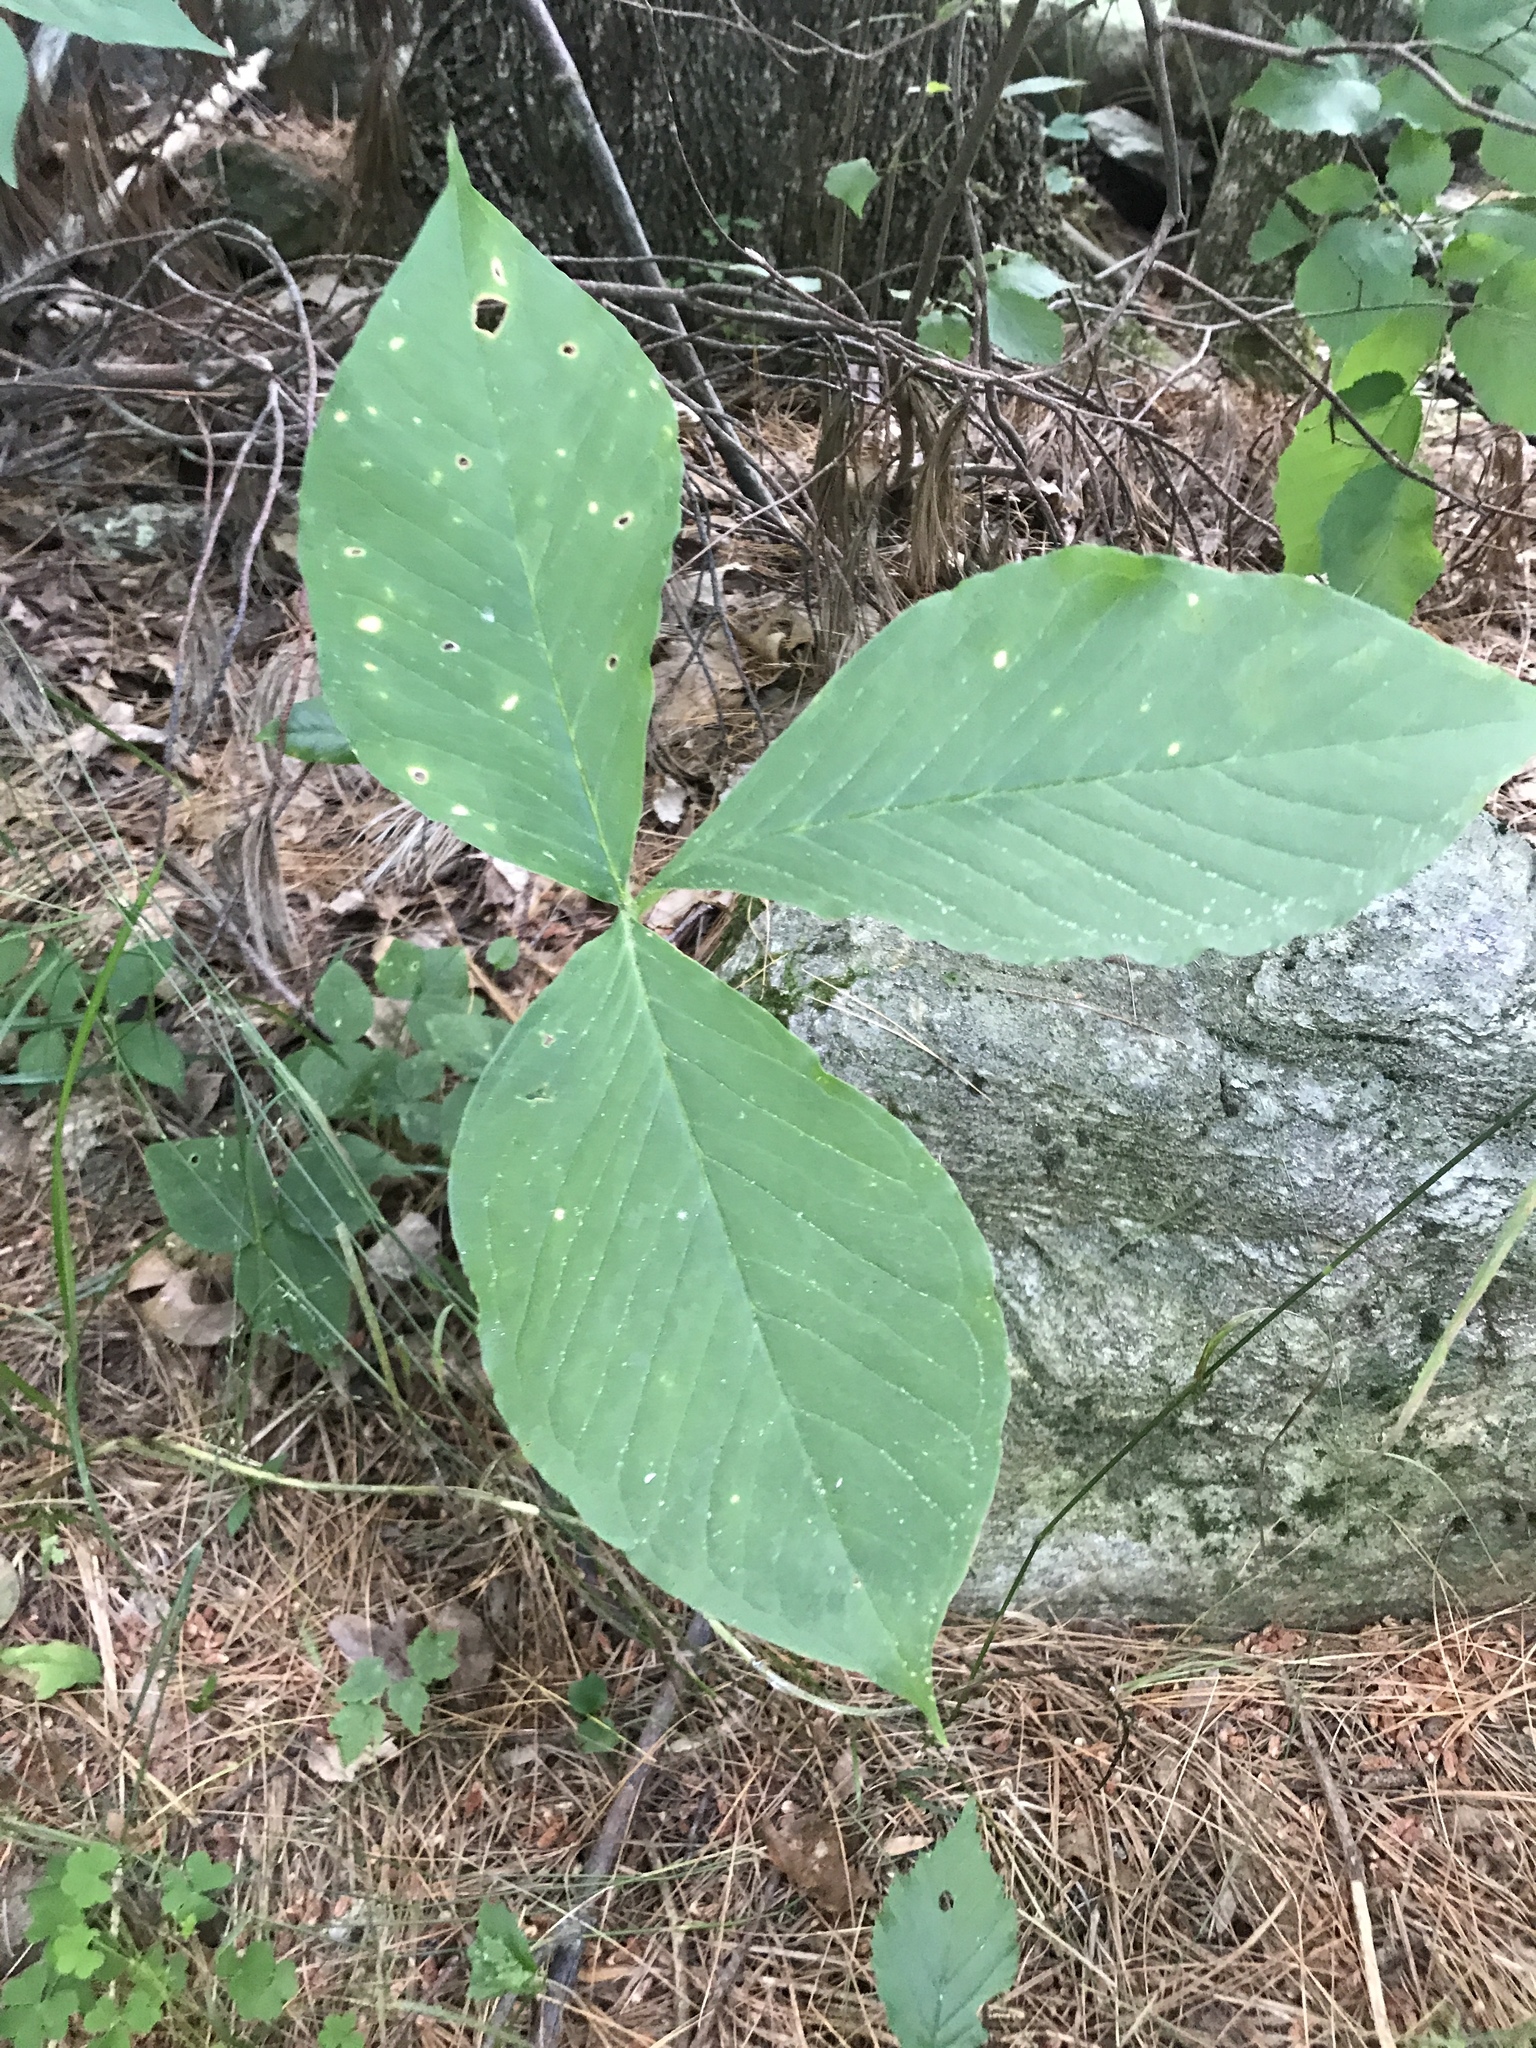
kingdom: Plantae
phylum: Tracheophyta
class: Liliopsida
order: Alismatales
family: Araceae
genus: Arisaema
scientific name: Arisaema triphyllum
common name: Jack-in-the-pulpit
